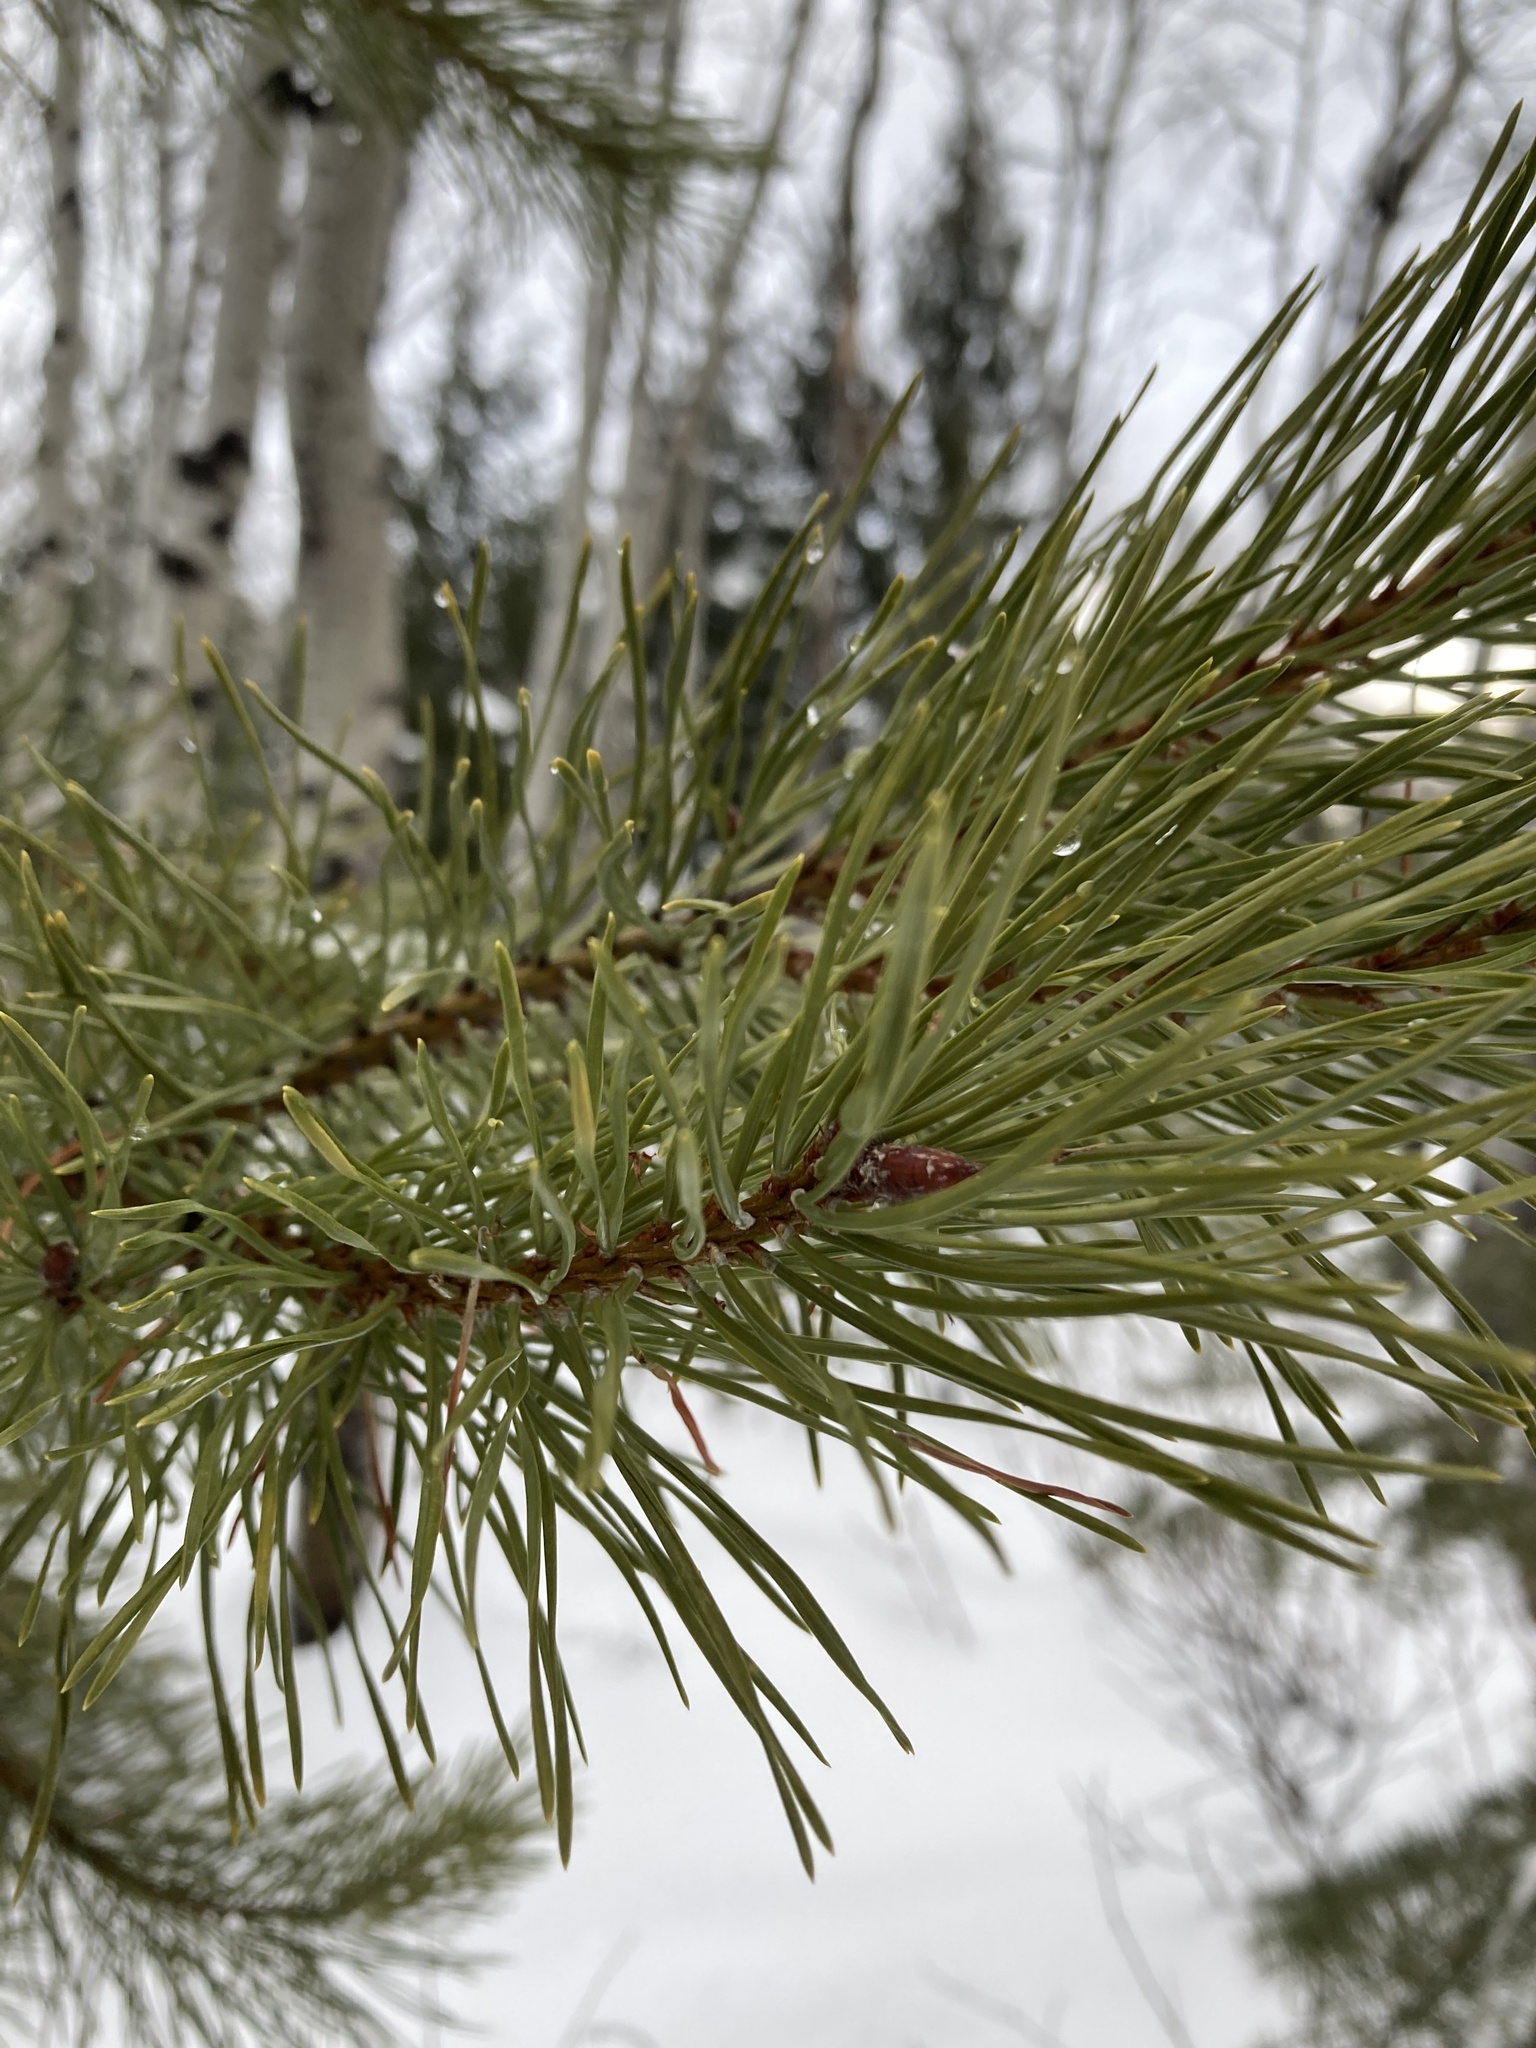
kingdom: Plantae
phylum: Tracheophyta
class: Pinopsida
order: Pinales
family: Pinaceae
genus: Pinus
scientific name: Pinus contorta
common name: Lodgepole pine
